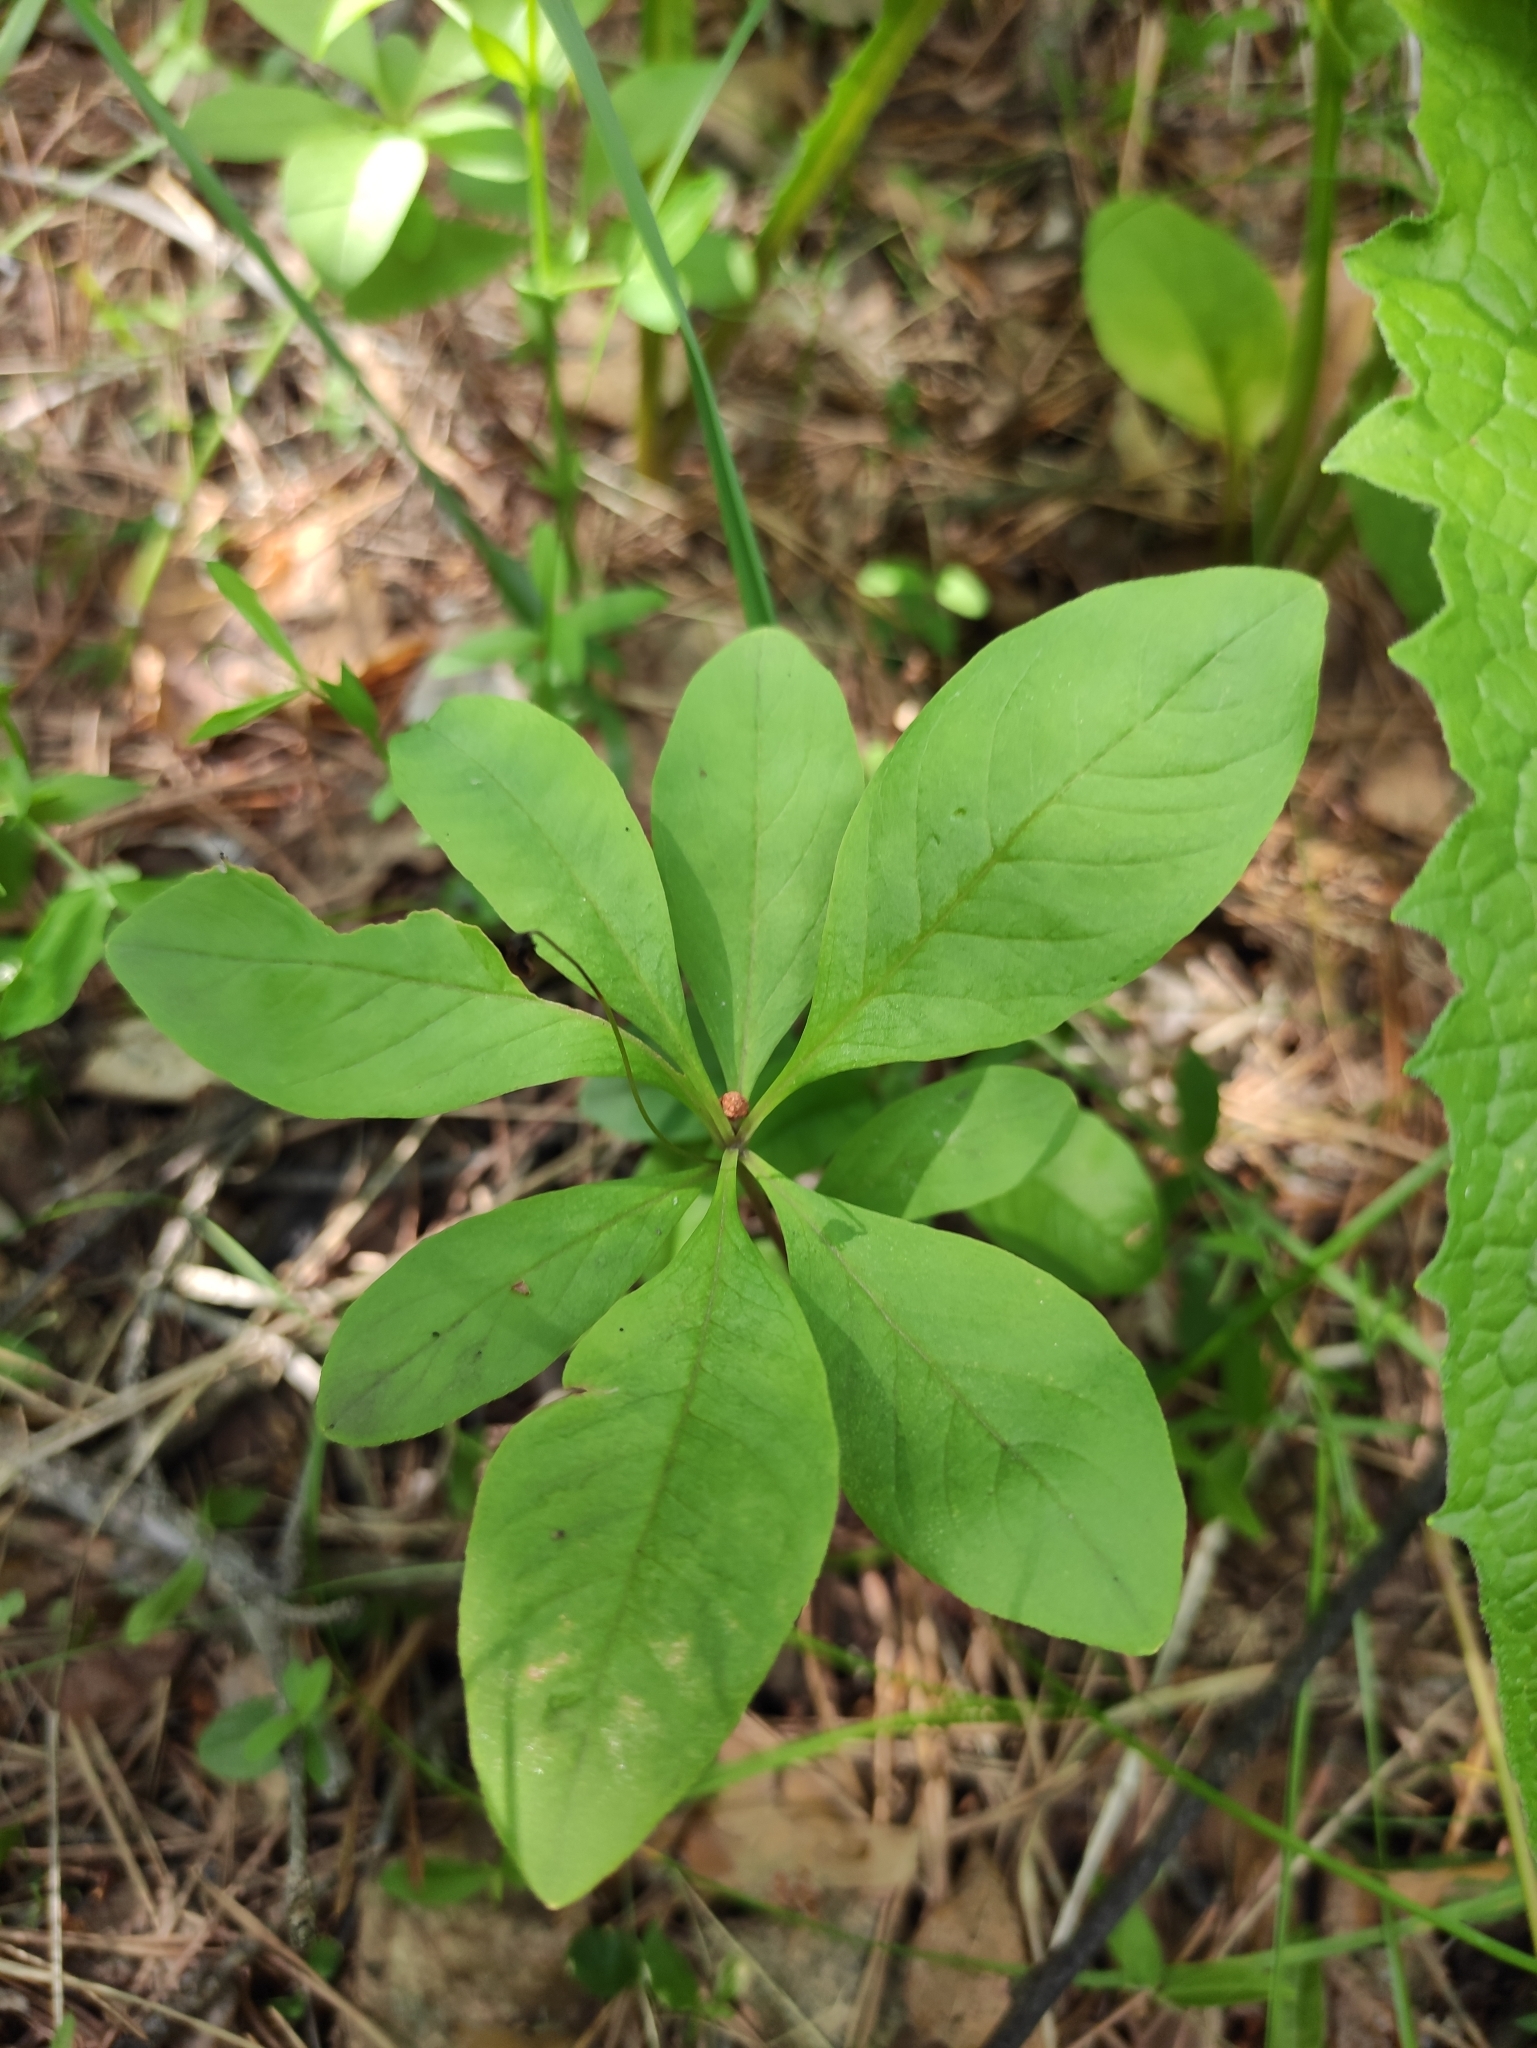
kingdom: Plantae
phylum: Tracheophyta
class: Magnoliopsida
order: Ericales
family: Primulaceae
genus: Lysimachia
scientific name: Lysimachia europaea
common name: Arctic starflower
